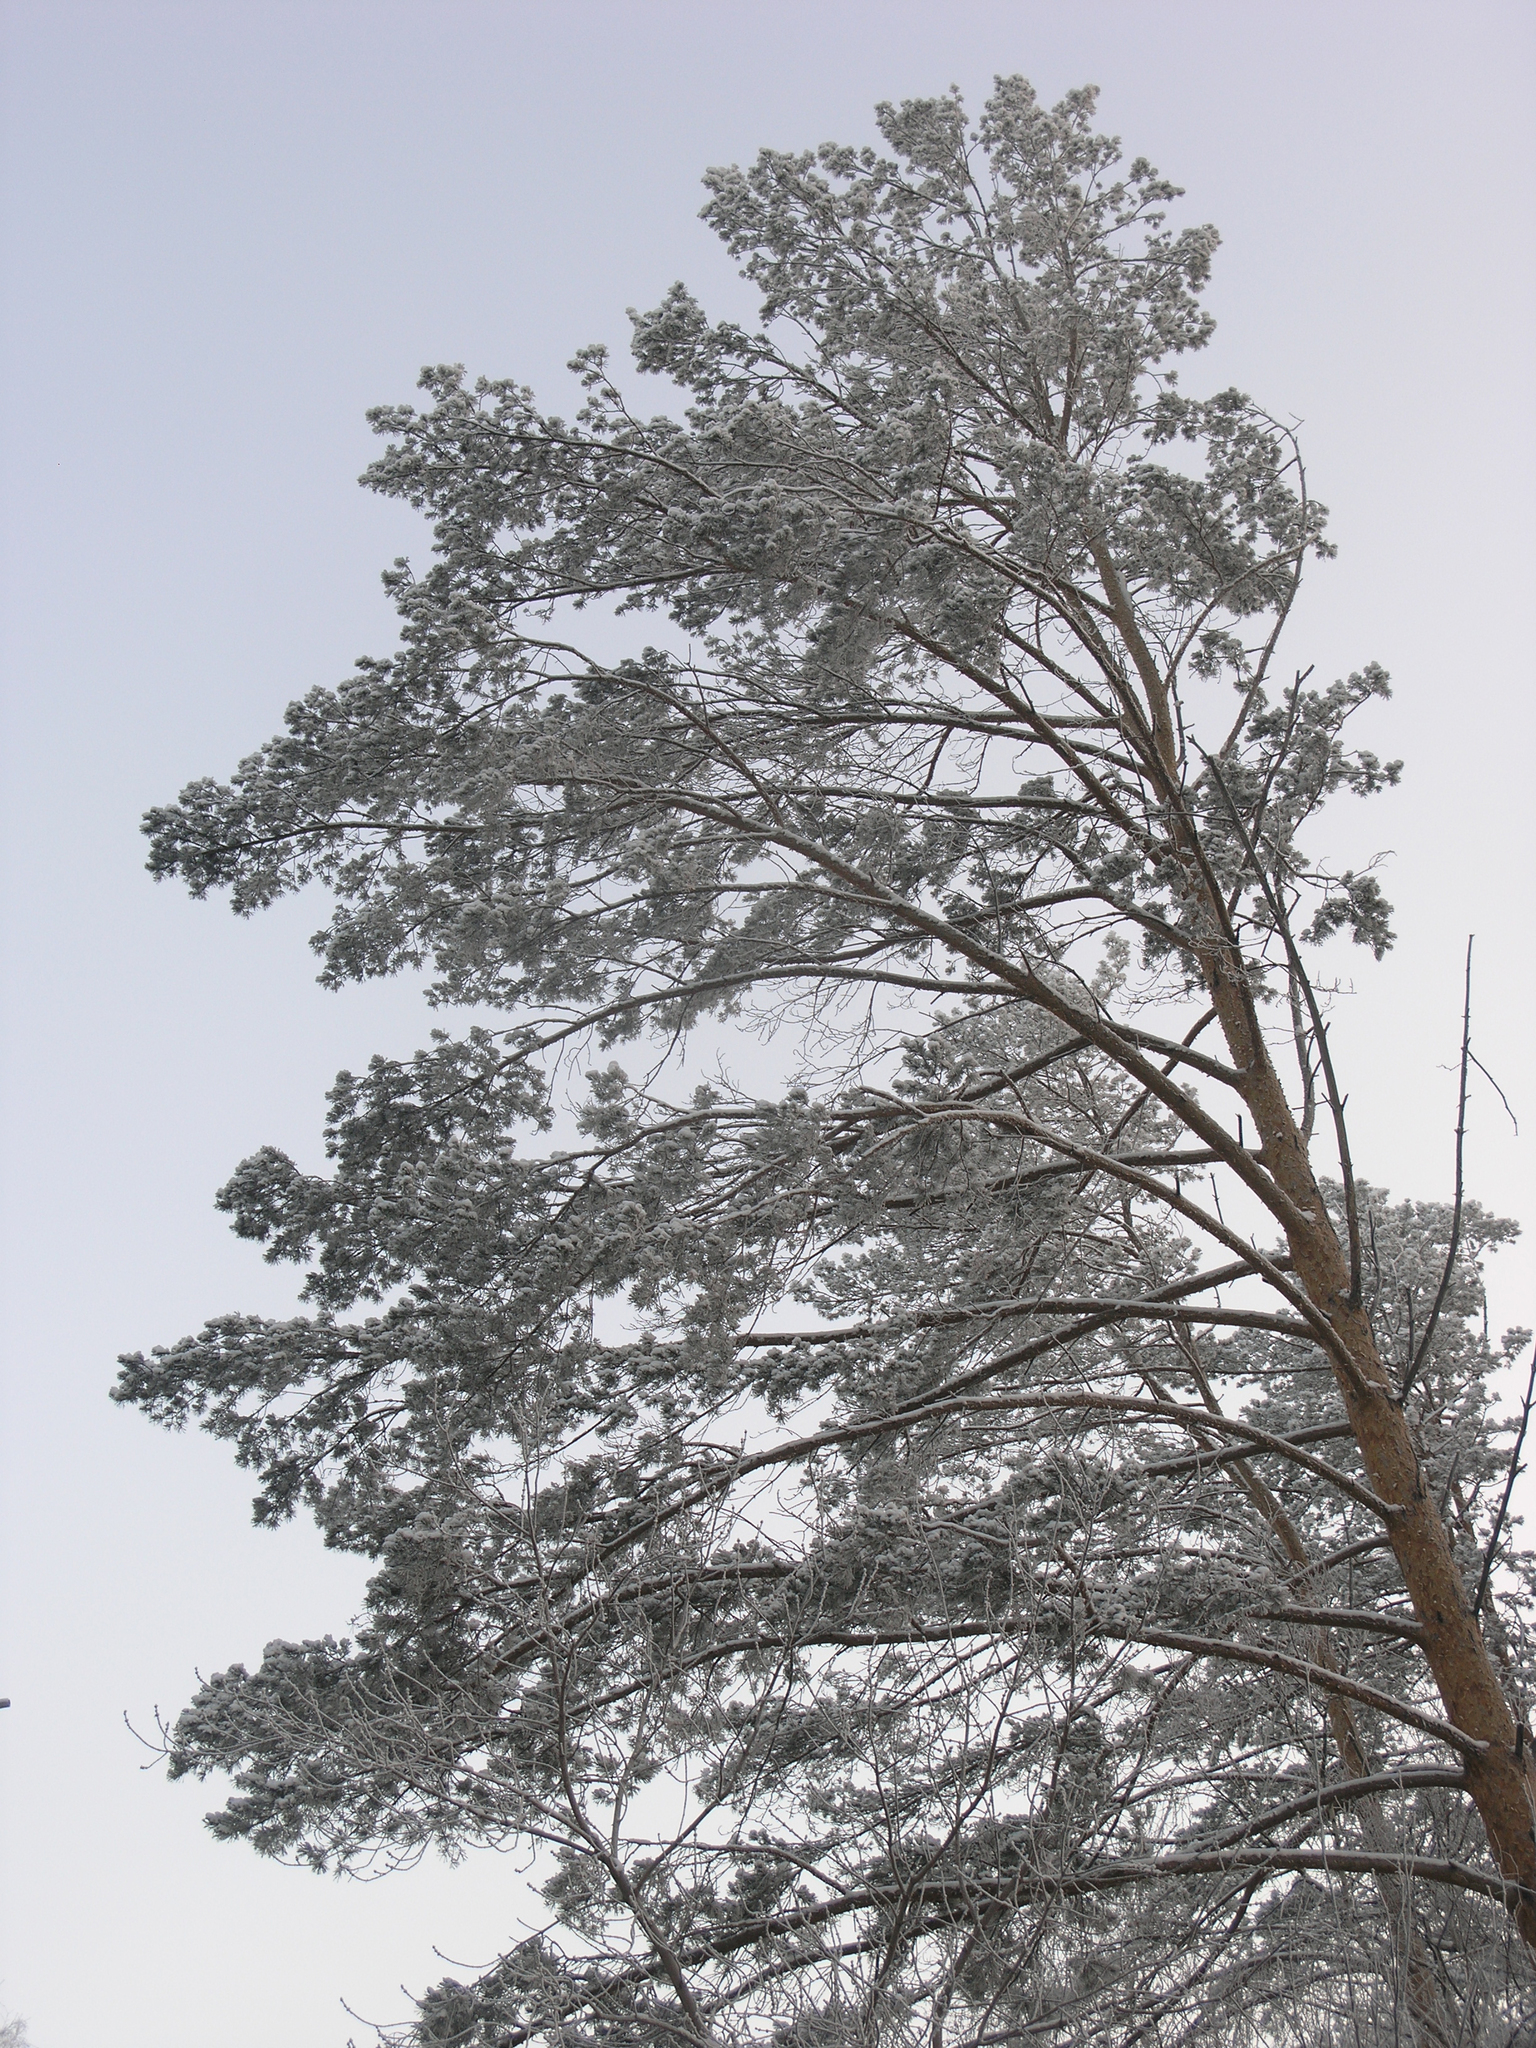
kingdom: Plantae
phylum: Tracheophyta
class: Pinopsida
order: Pinales
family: Pinaceae
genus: Pinus
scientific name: Pinus sylvestris
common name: Scots pine
